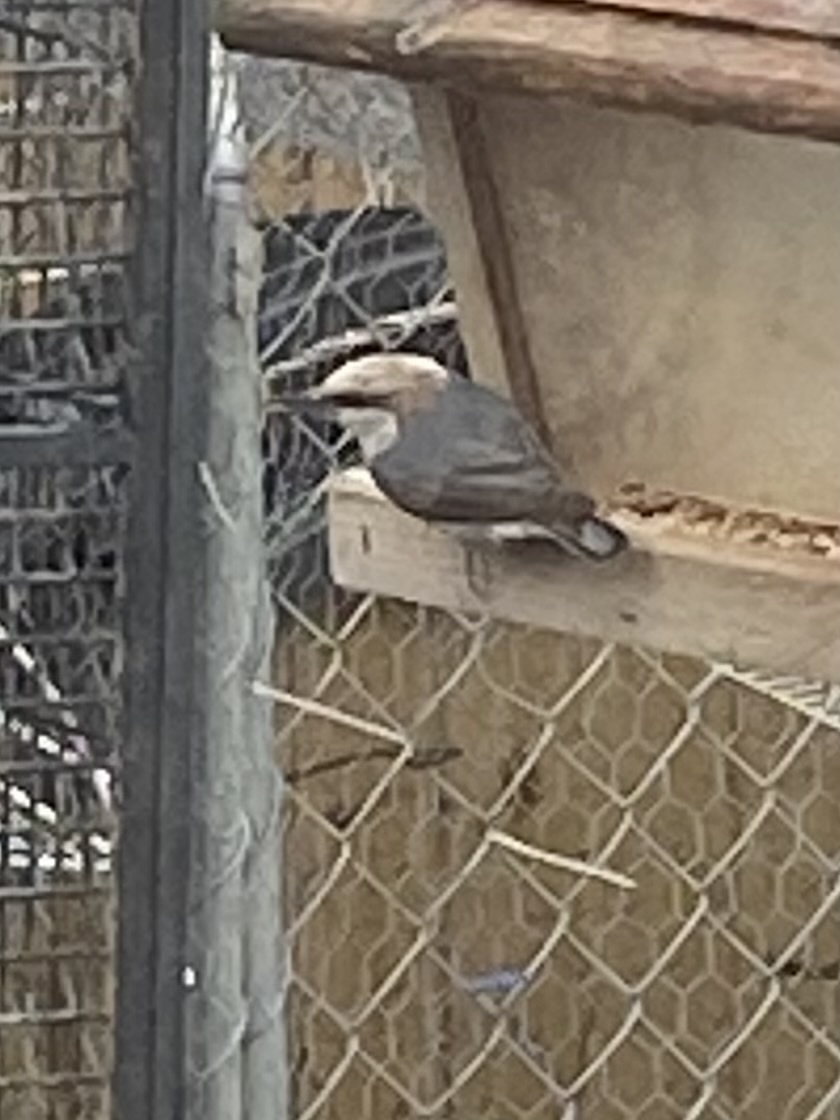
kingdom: Animalia
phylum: Chordata
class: Aves
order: Passeriformes
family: Sittidae
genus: Sitta
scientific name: Sitta pusilla
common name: Brown-headed nuthatch
